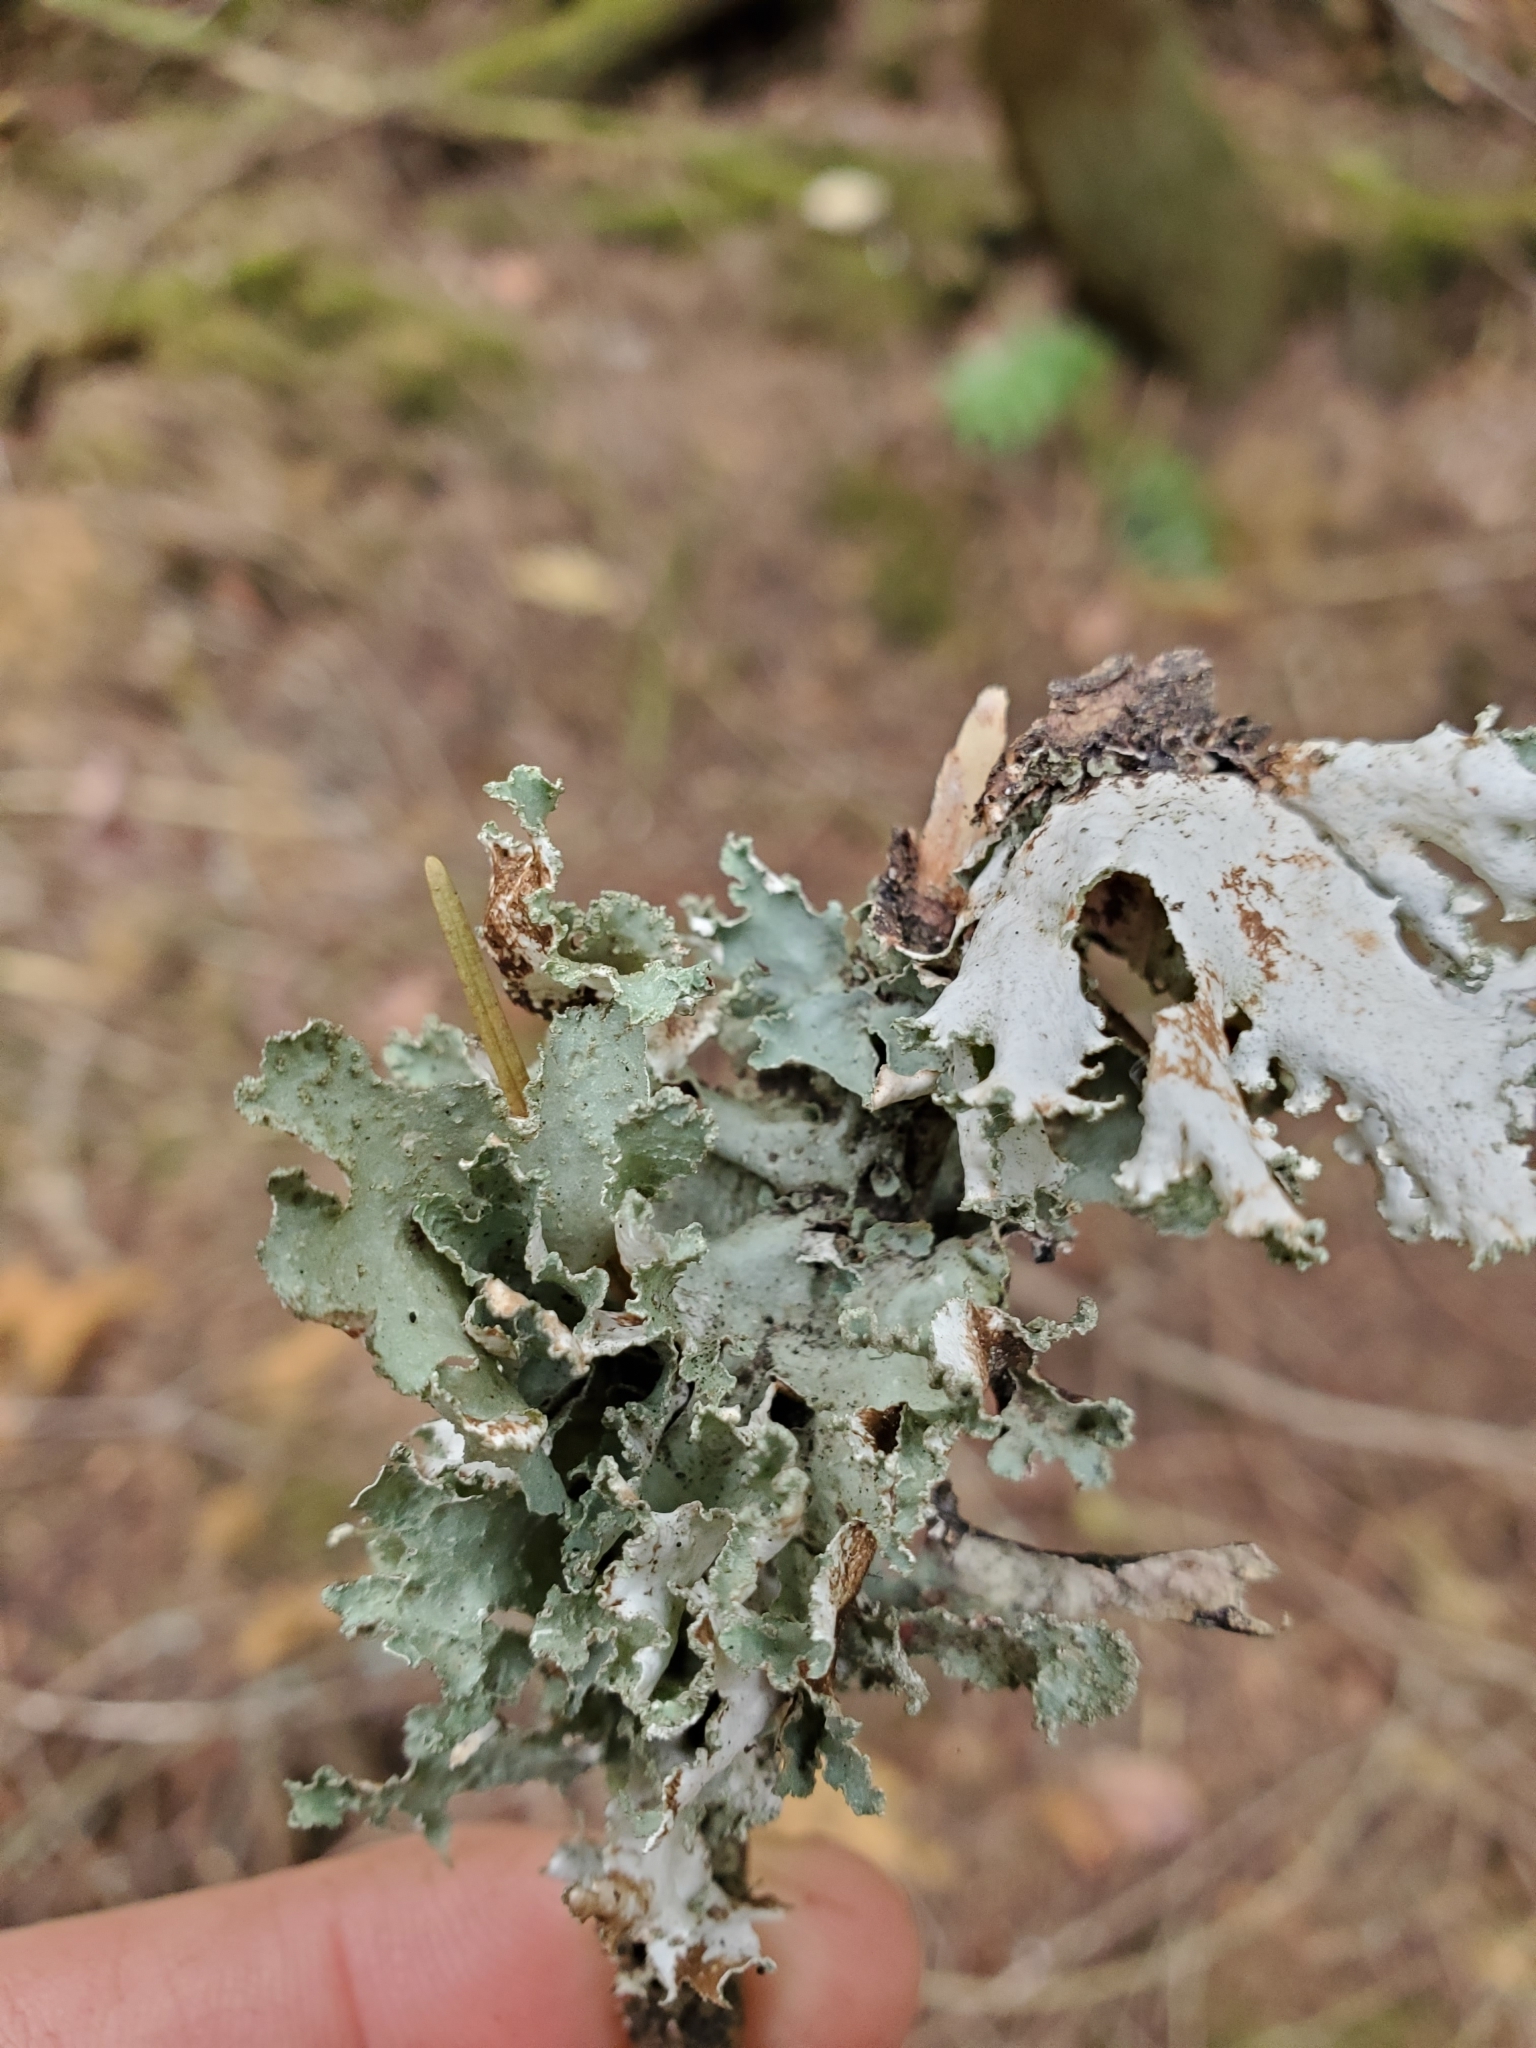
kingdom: Fungi
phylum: Ascomycota
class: Lecanoromycetes
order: Lecanorales
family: Parmeliaceae
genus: Platismatia
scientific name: Platismatia glauca
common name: Varied rag lichen
